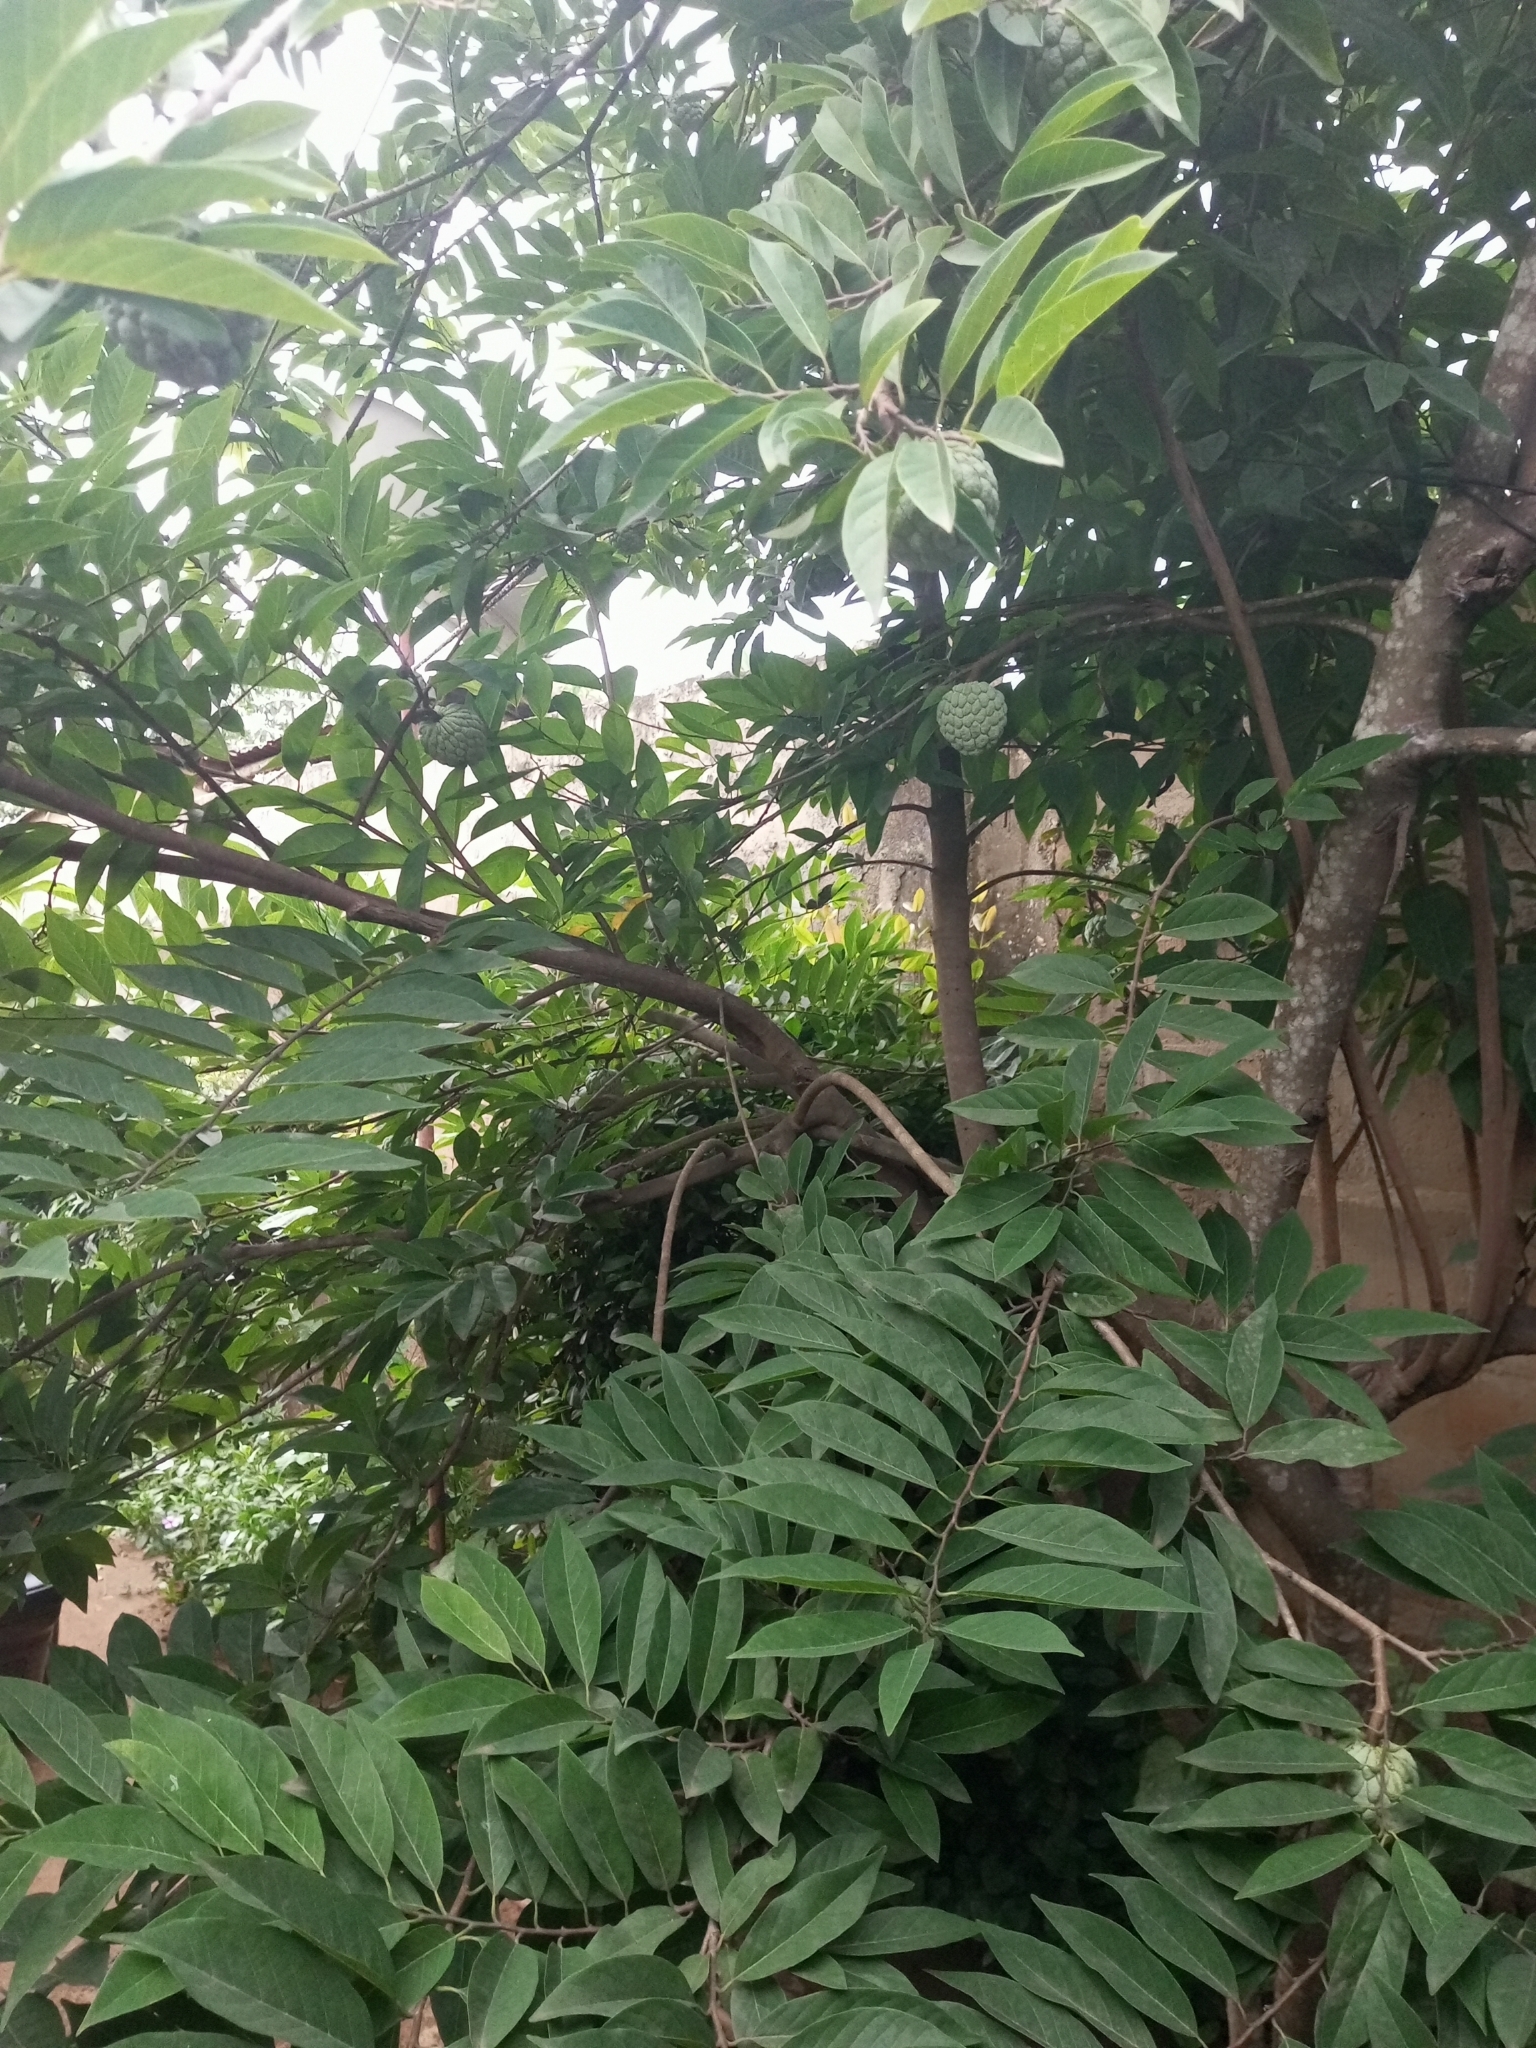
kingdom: Plantae
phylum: Tracheophyta
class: Magnoliopsida
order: Magnoliales
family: Annonaceae
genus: Annona
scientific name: Annona squamosa
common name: Custard-apple
